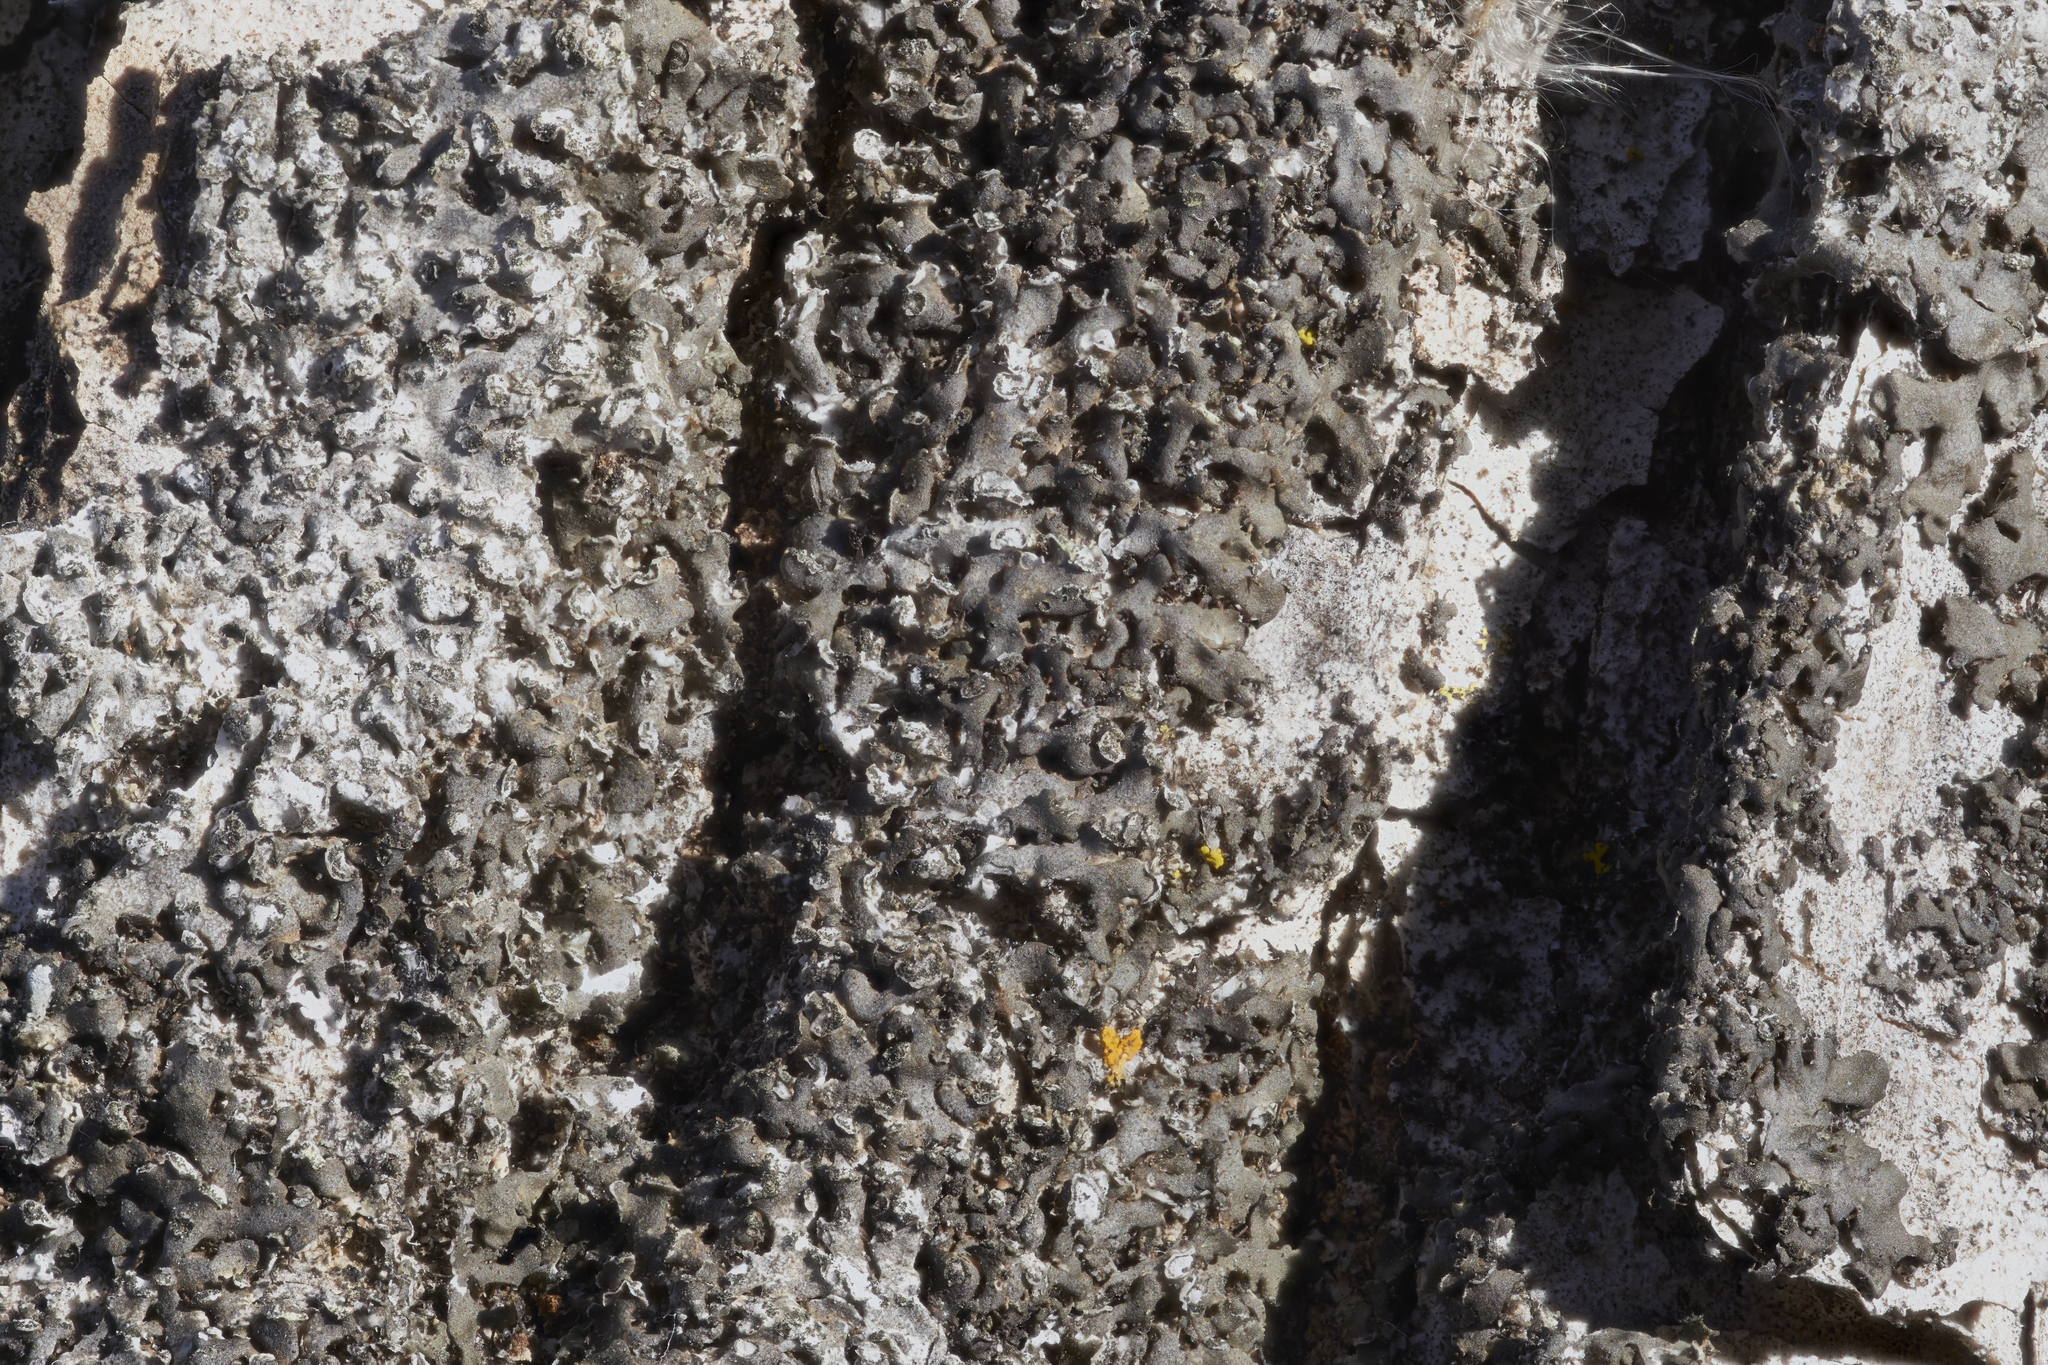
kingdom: Fungi
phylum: Ascomycota
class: Lecanoromycetes
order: Caliciales
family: Physciaceae
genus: Physciella
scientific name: Physciella melanchra
